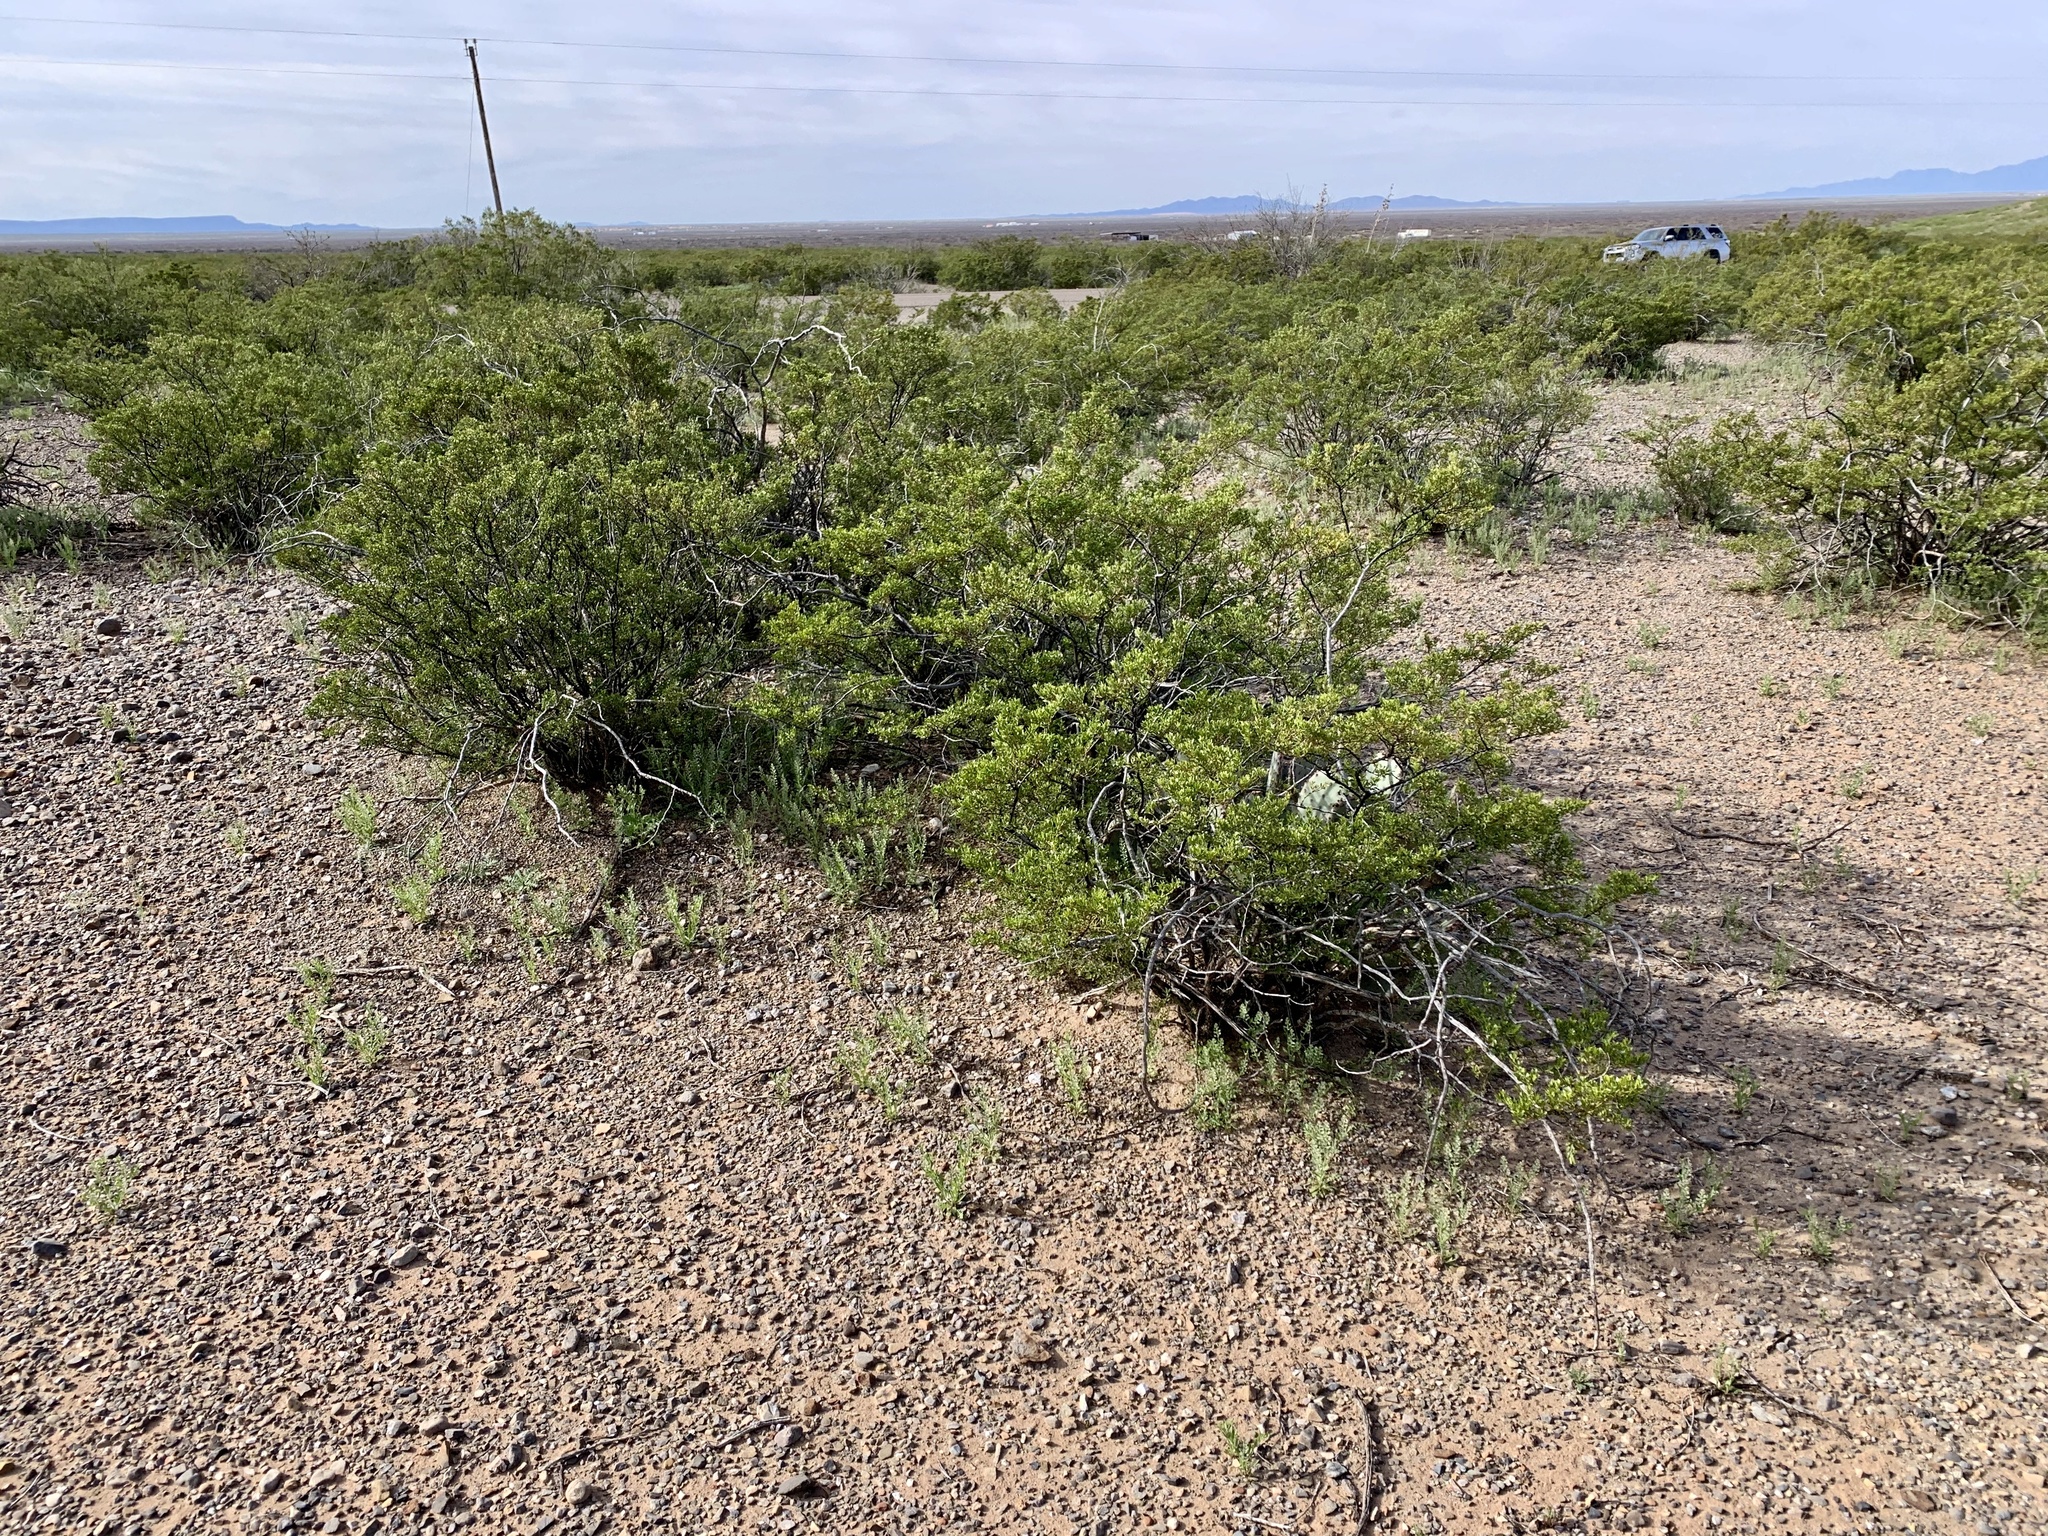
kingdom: Plantae
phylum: Tracheophyta
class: Magnoliopsida
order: Zygophyllales
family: Zygophyllaceae
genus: Larrea
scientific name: Larrea tridentata
